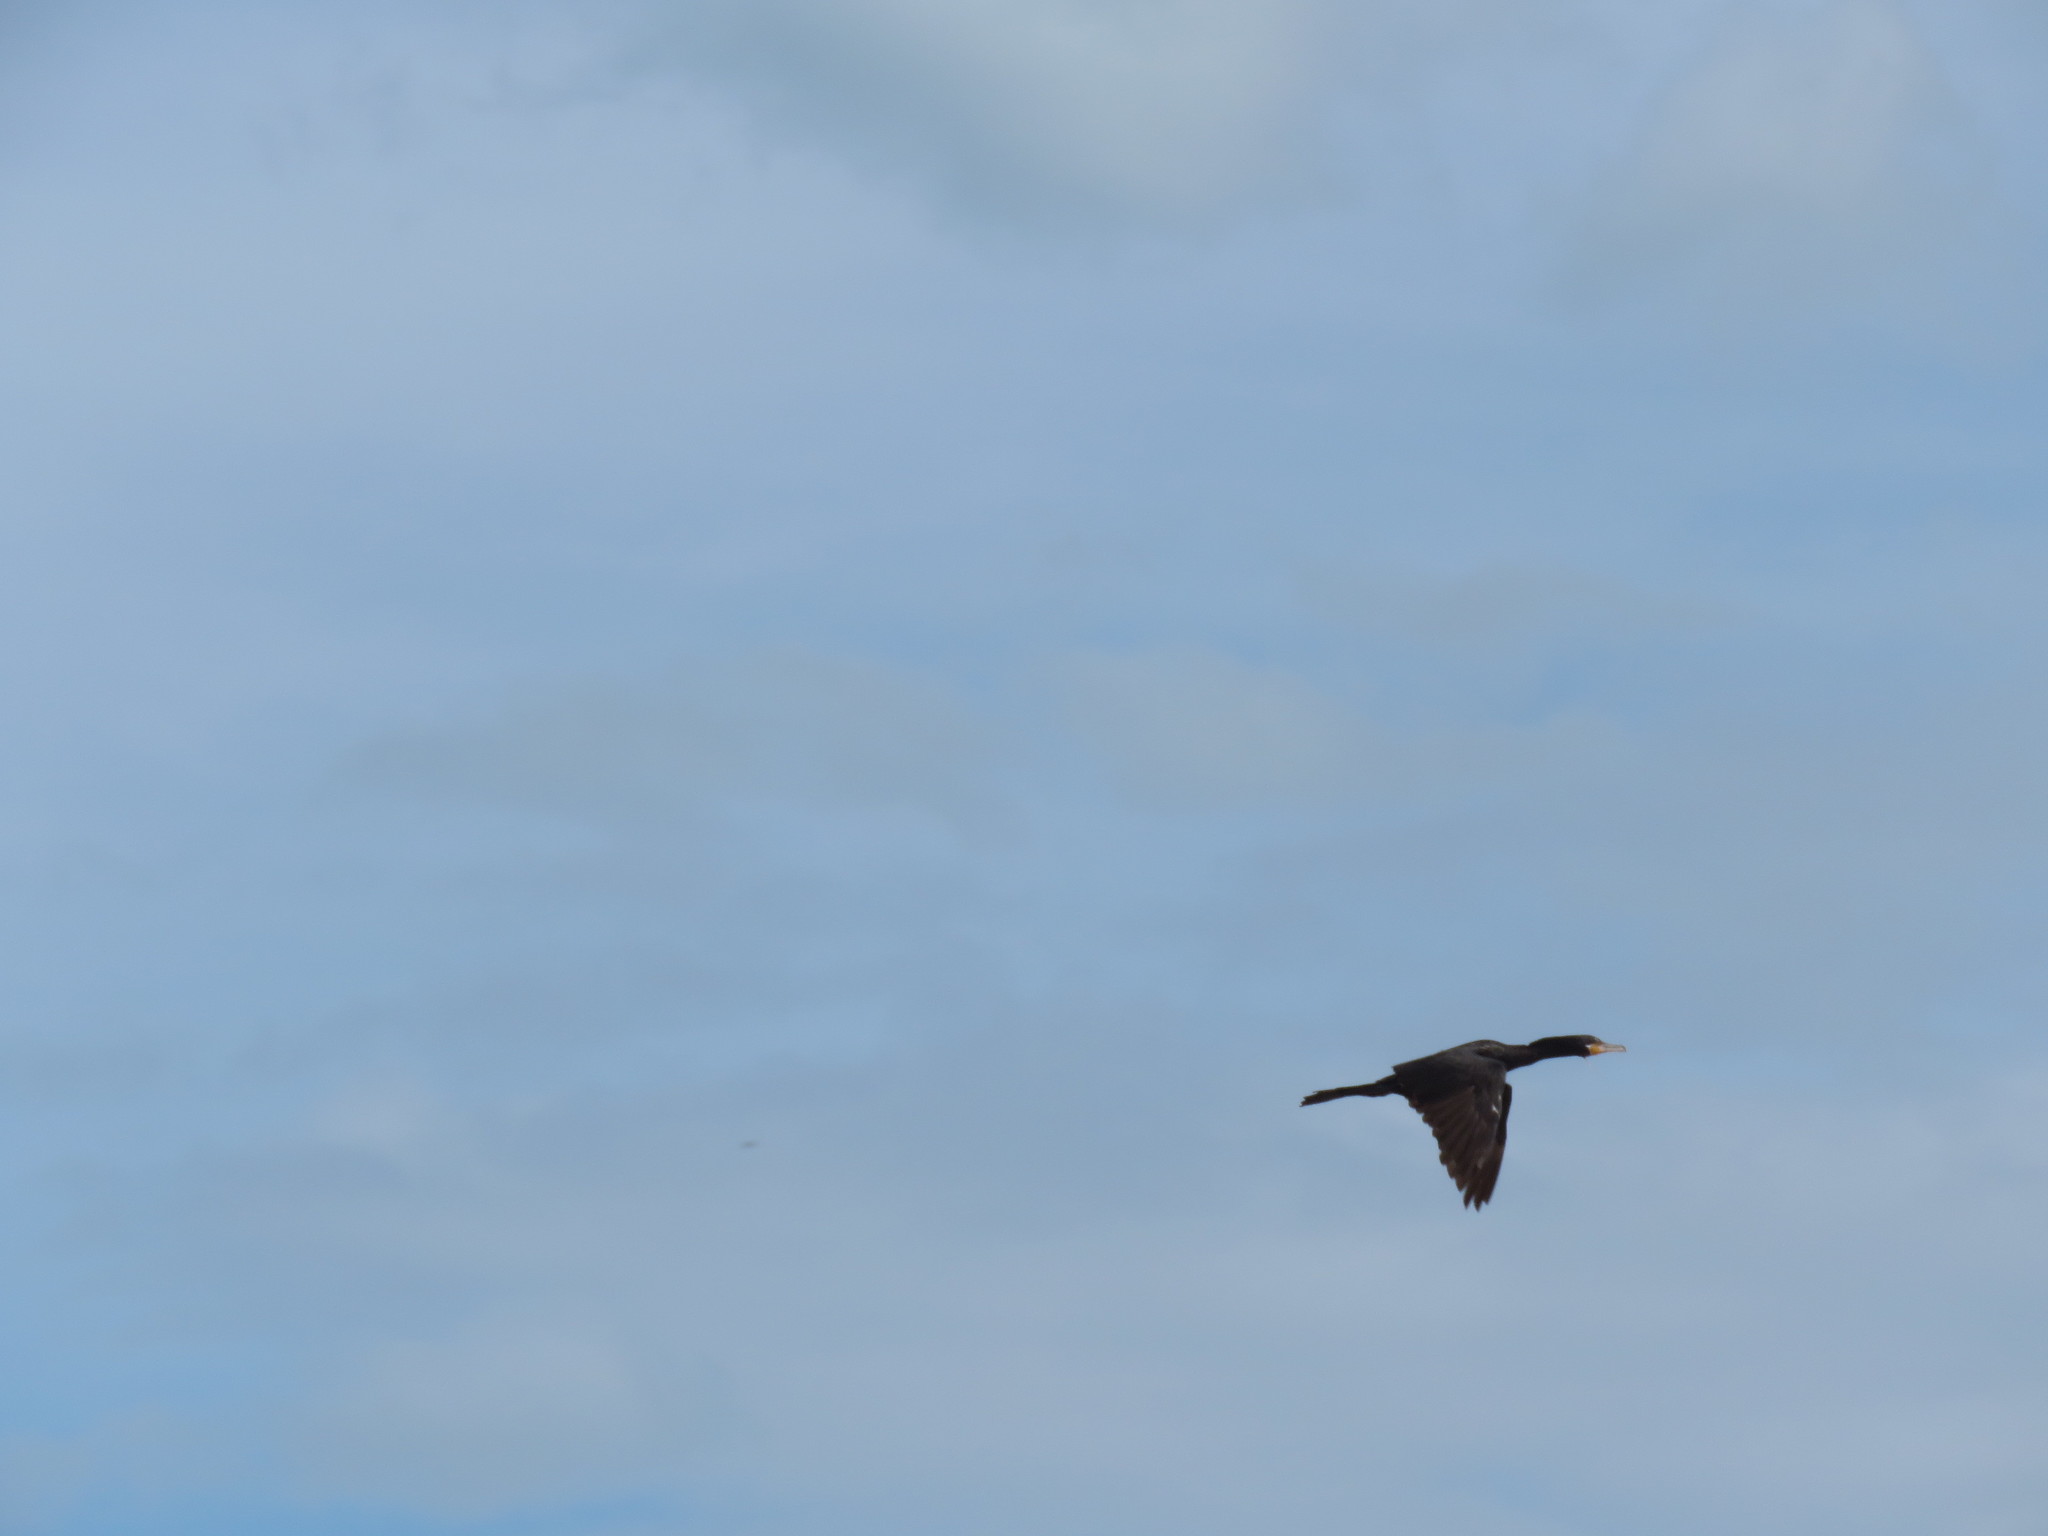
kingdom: Animalia
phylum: Chordata
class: Aves
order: Suliformes
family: Phalacrocoracidae
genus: Phalacrocorax
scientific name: Phalacrocorax brasilianus
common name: Neotropic cormorant
